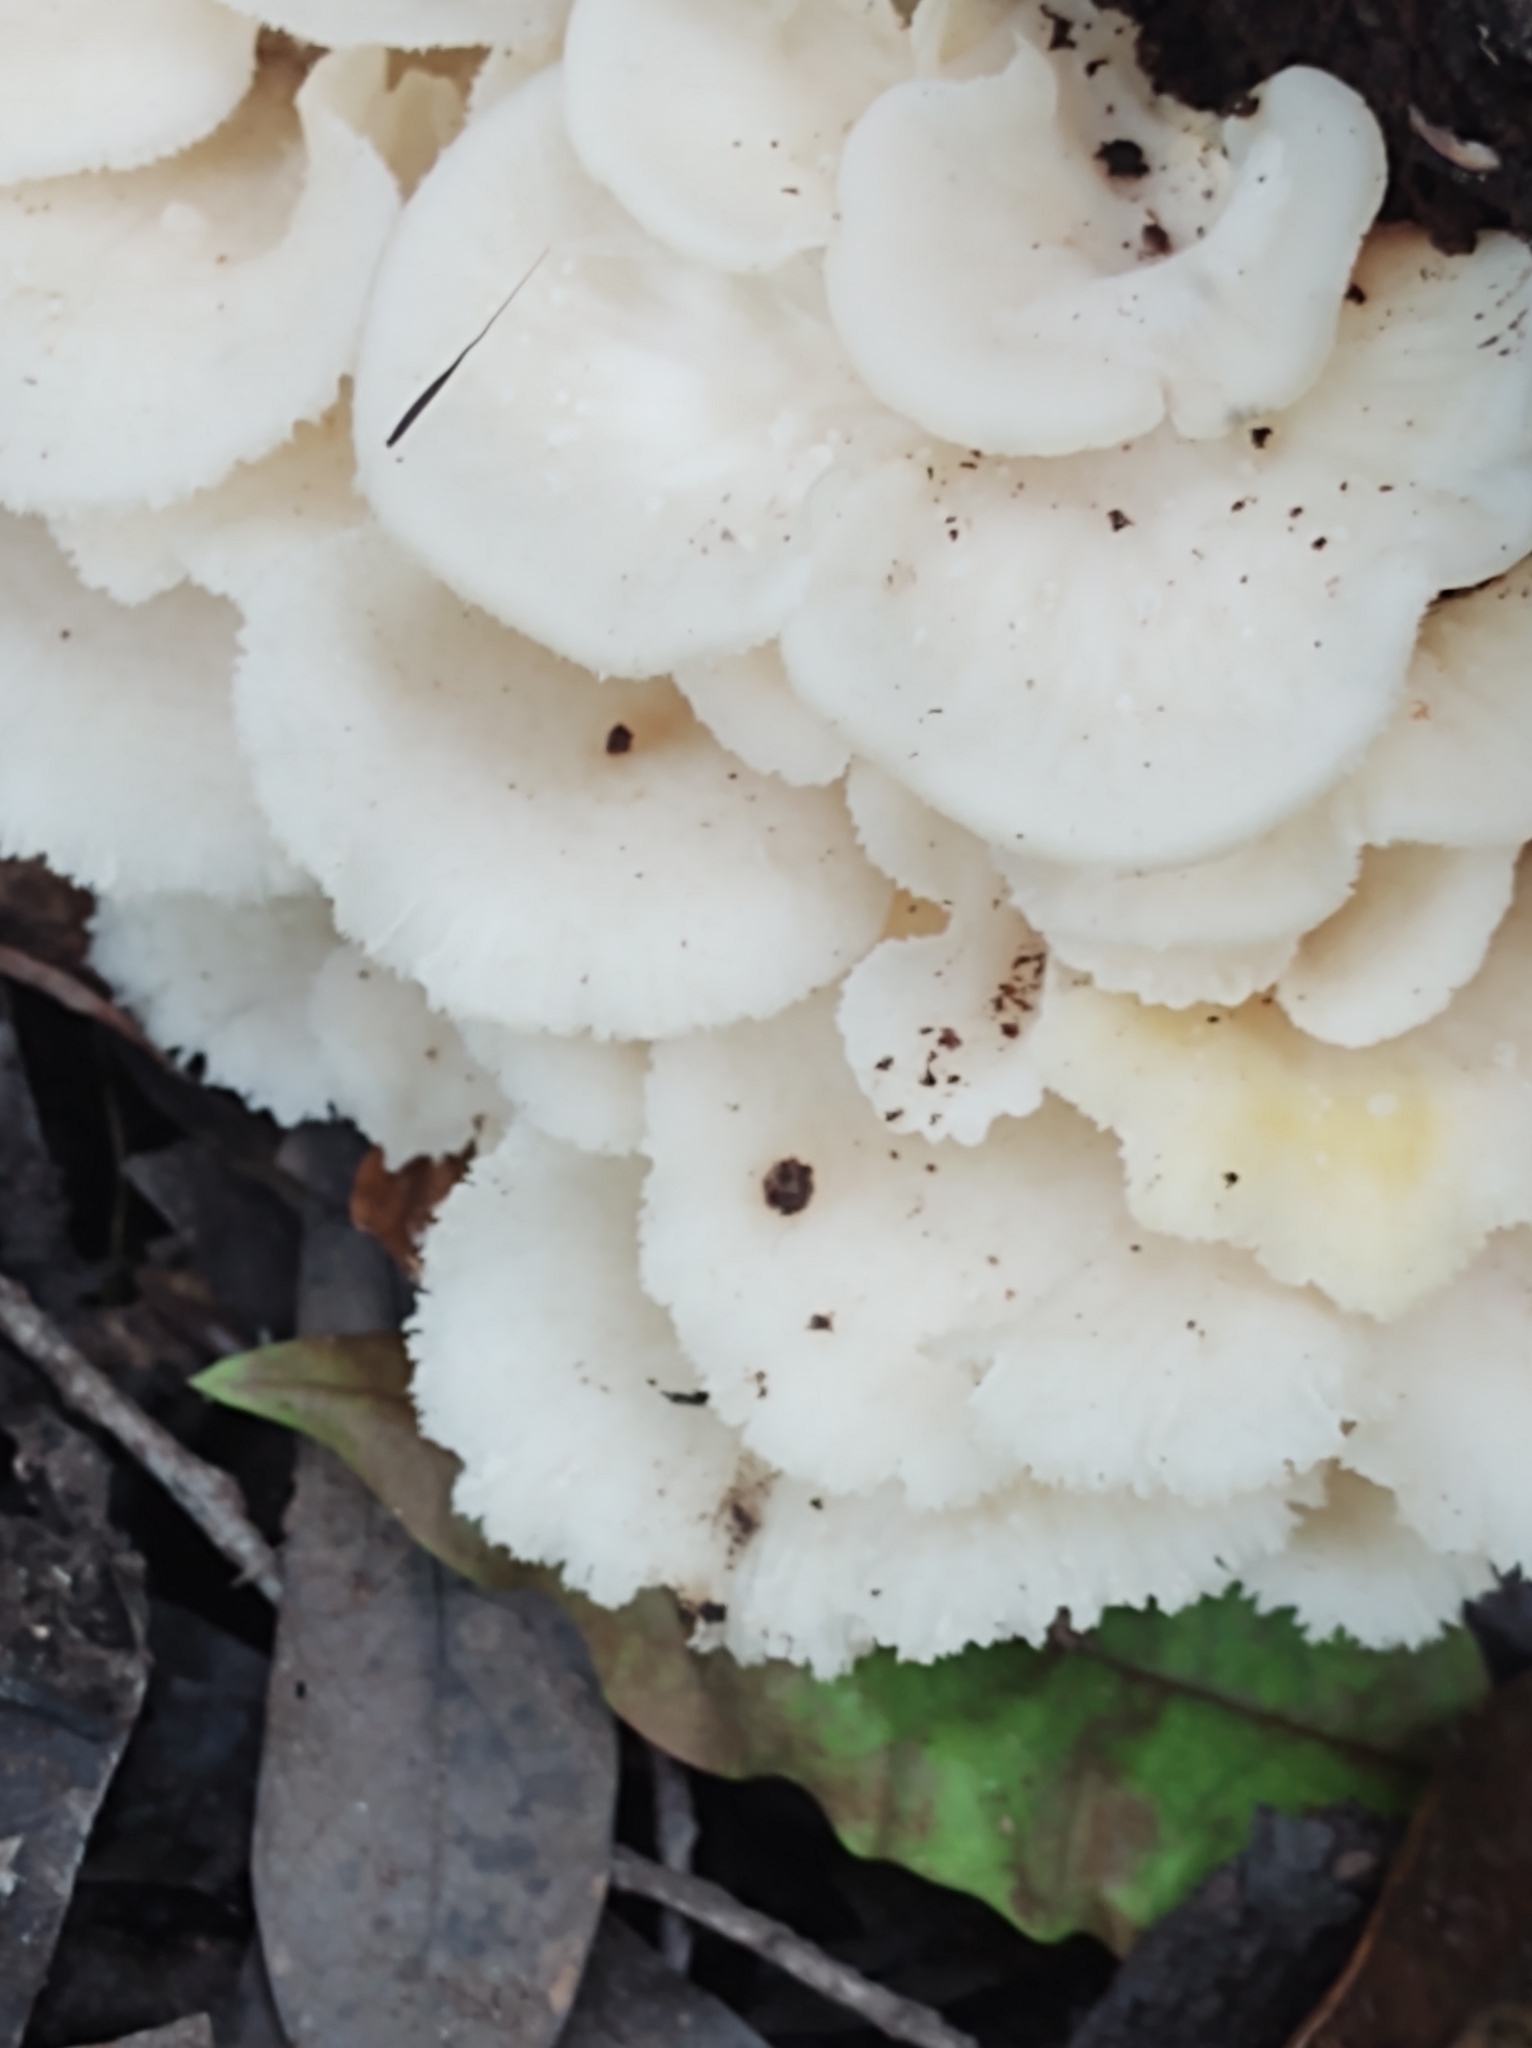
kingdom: Fungi
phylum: Basidiomycota
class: Agaricomycetes
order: Polyporales
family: Polyporaceae
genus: Favolus
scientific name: Favolus tenuiculus
